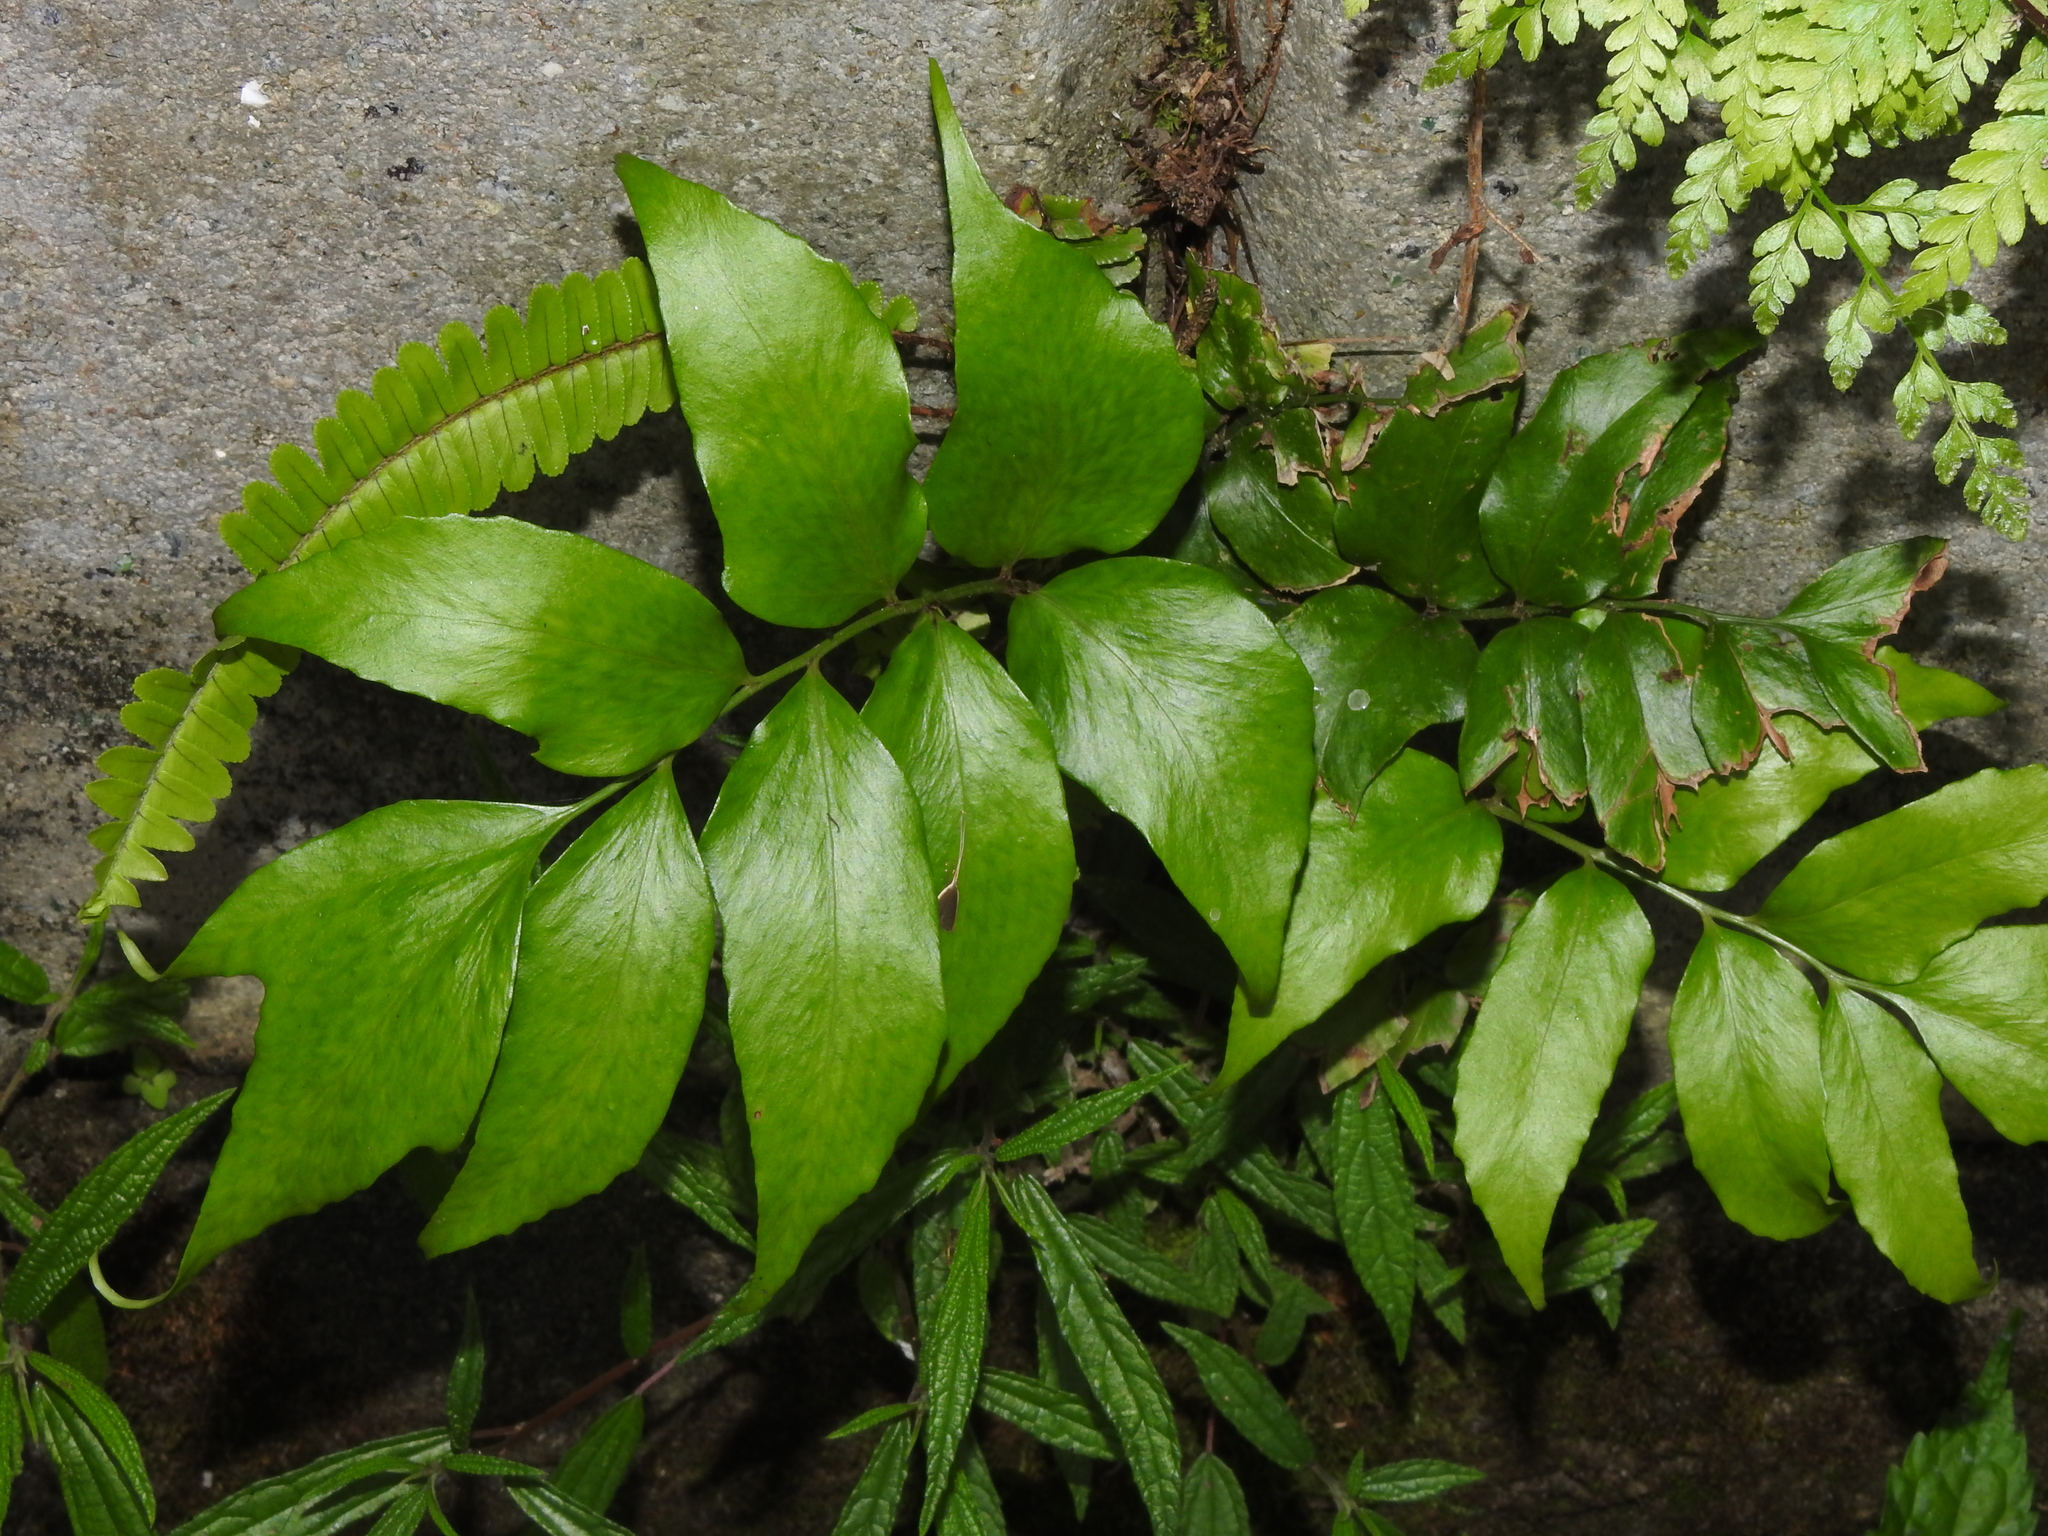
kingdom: Plantae
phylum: Tracheophyta
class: Polypodiopsida
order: Polypodiales
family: Dryopteridaceae
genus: Cyrtomium
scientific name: Cyrtomium macrophyllum
